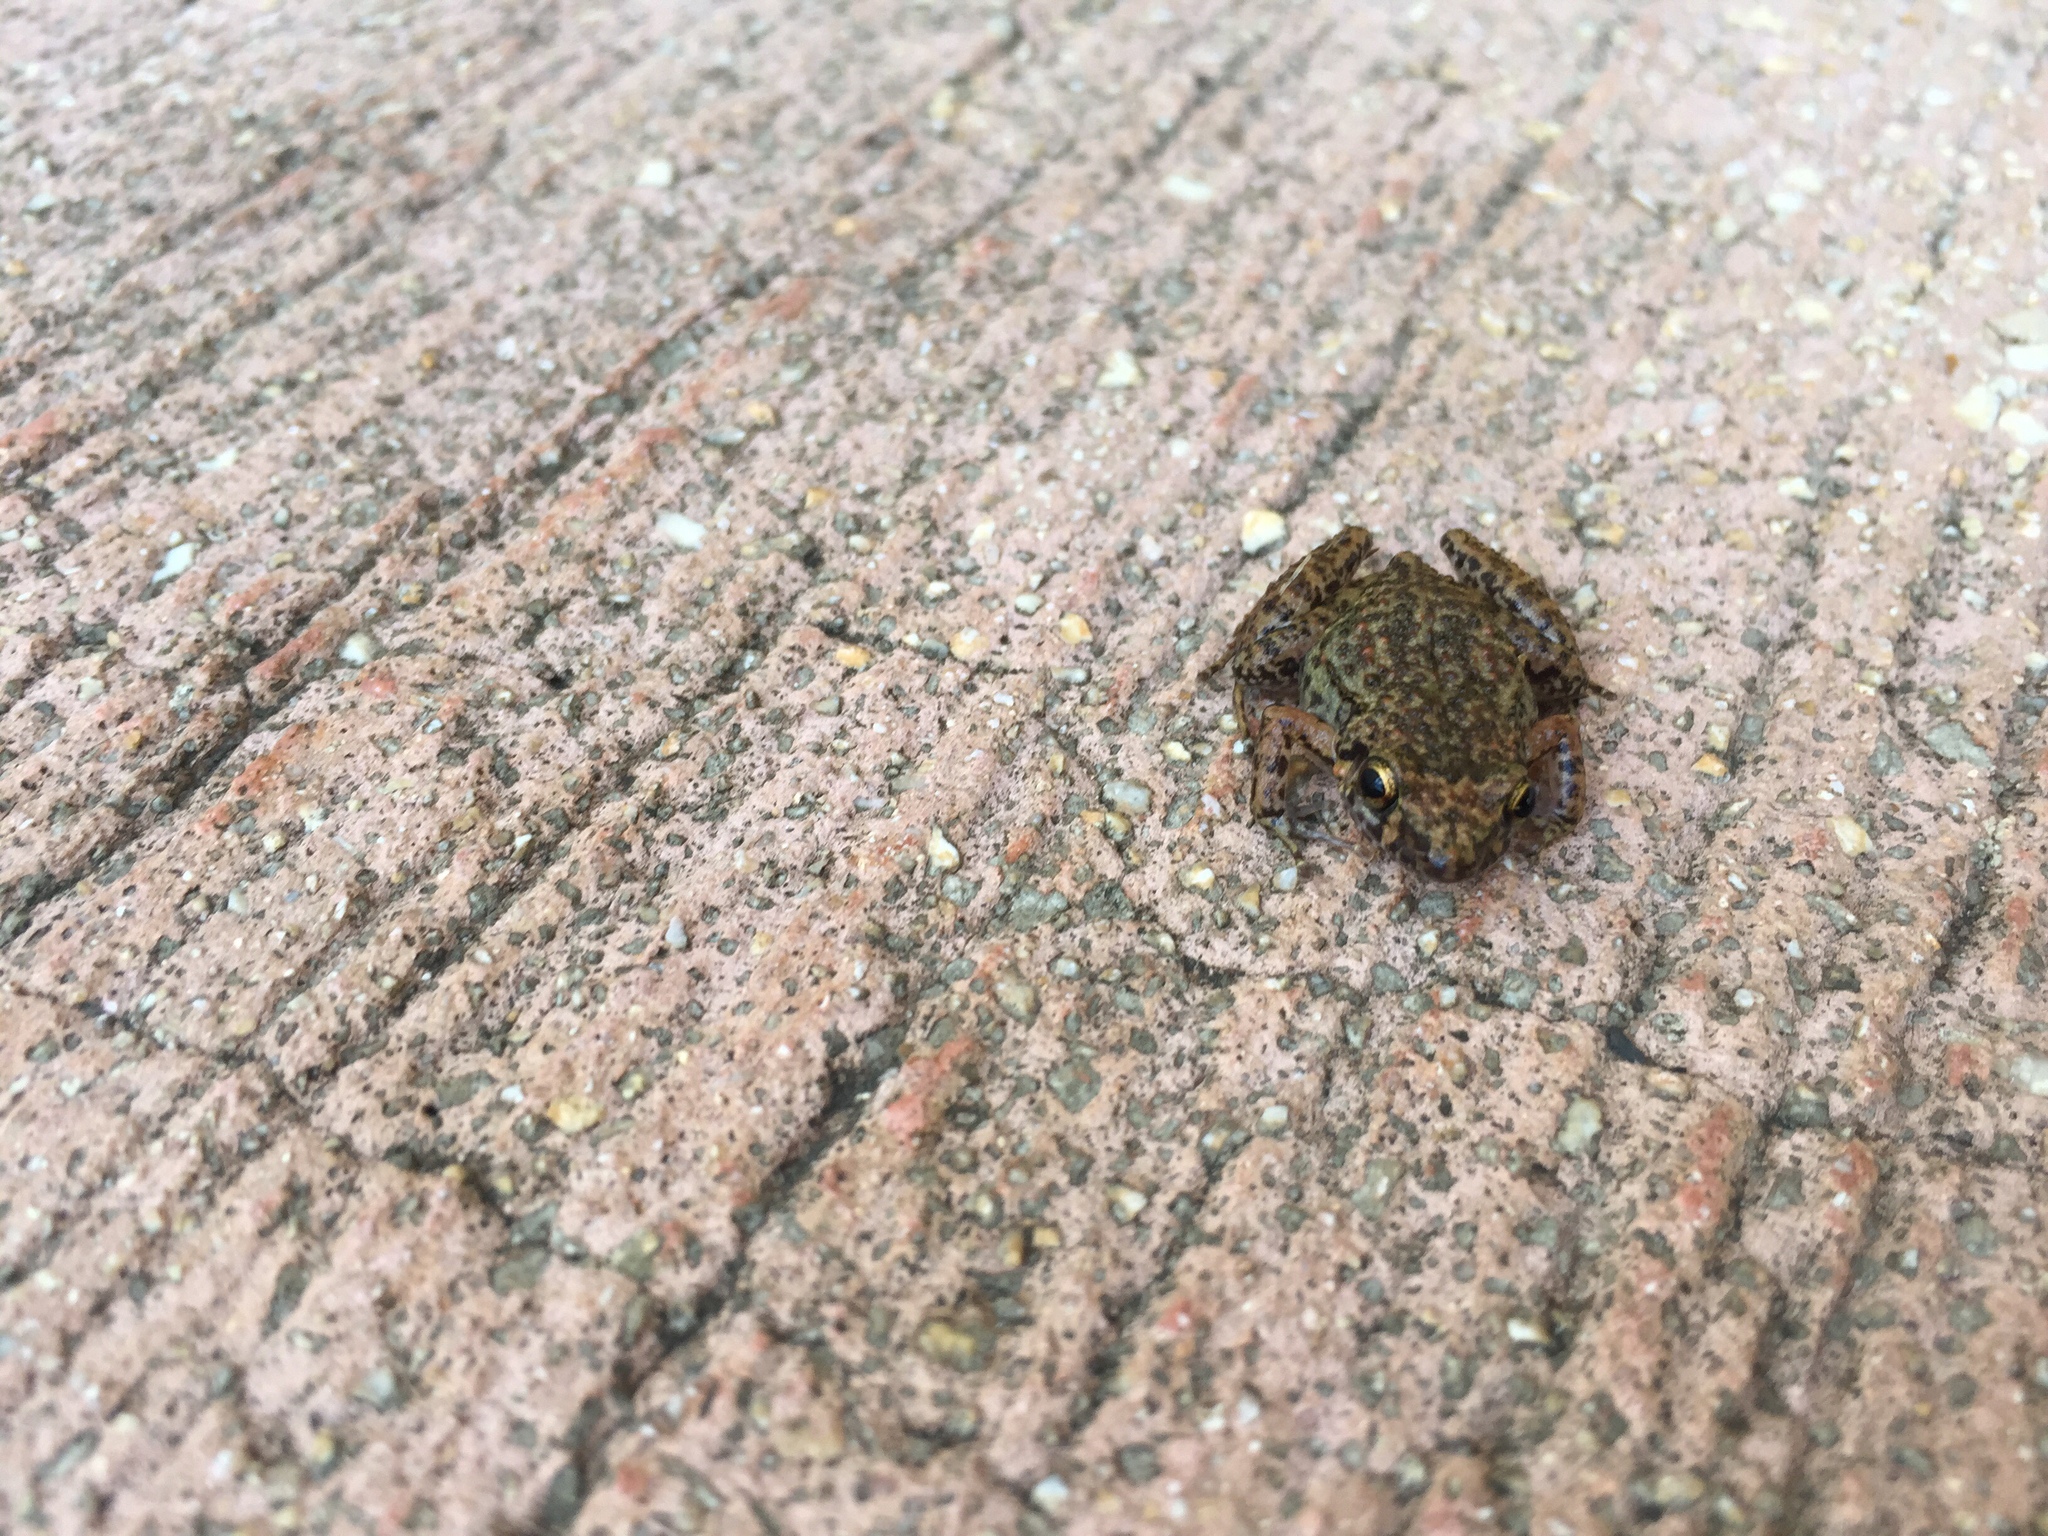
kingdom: Animalia
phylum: Chordata
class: Amphibia
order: Anura
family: Eleutherodactylidae
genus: Eleutherodactylus
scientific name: Eleutherodactylus planirostris
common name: Greenhouse frog
